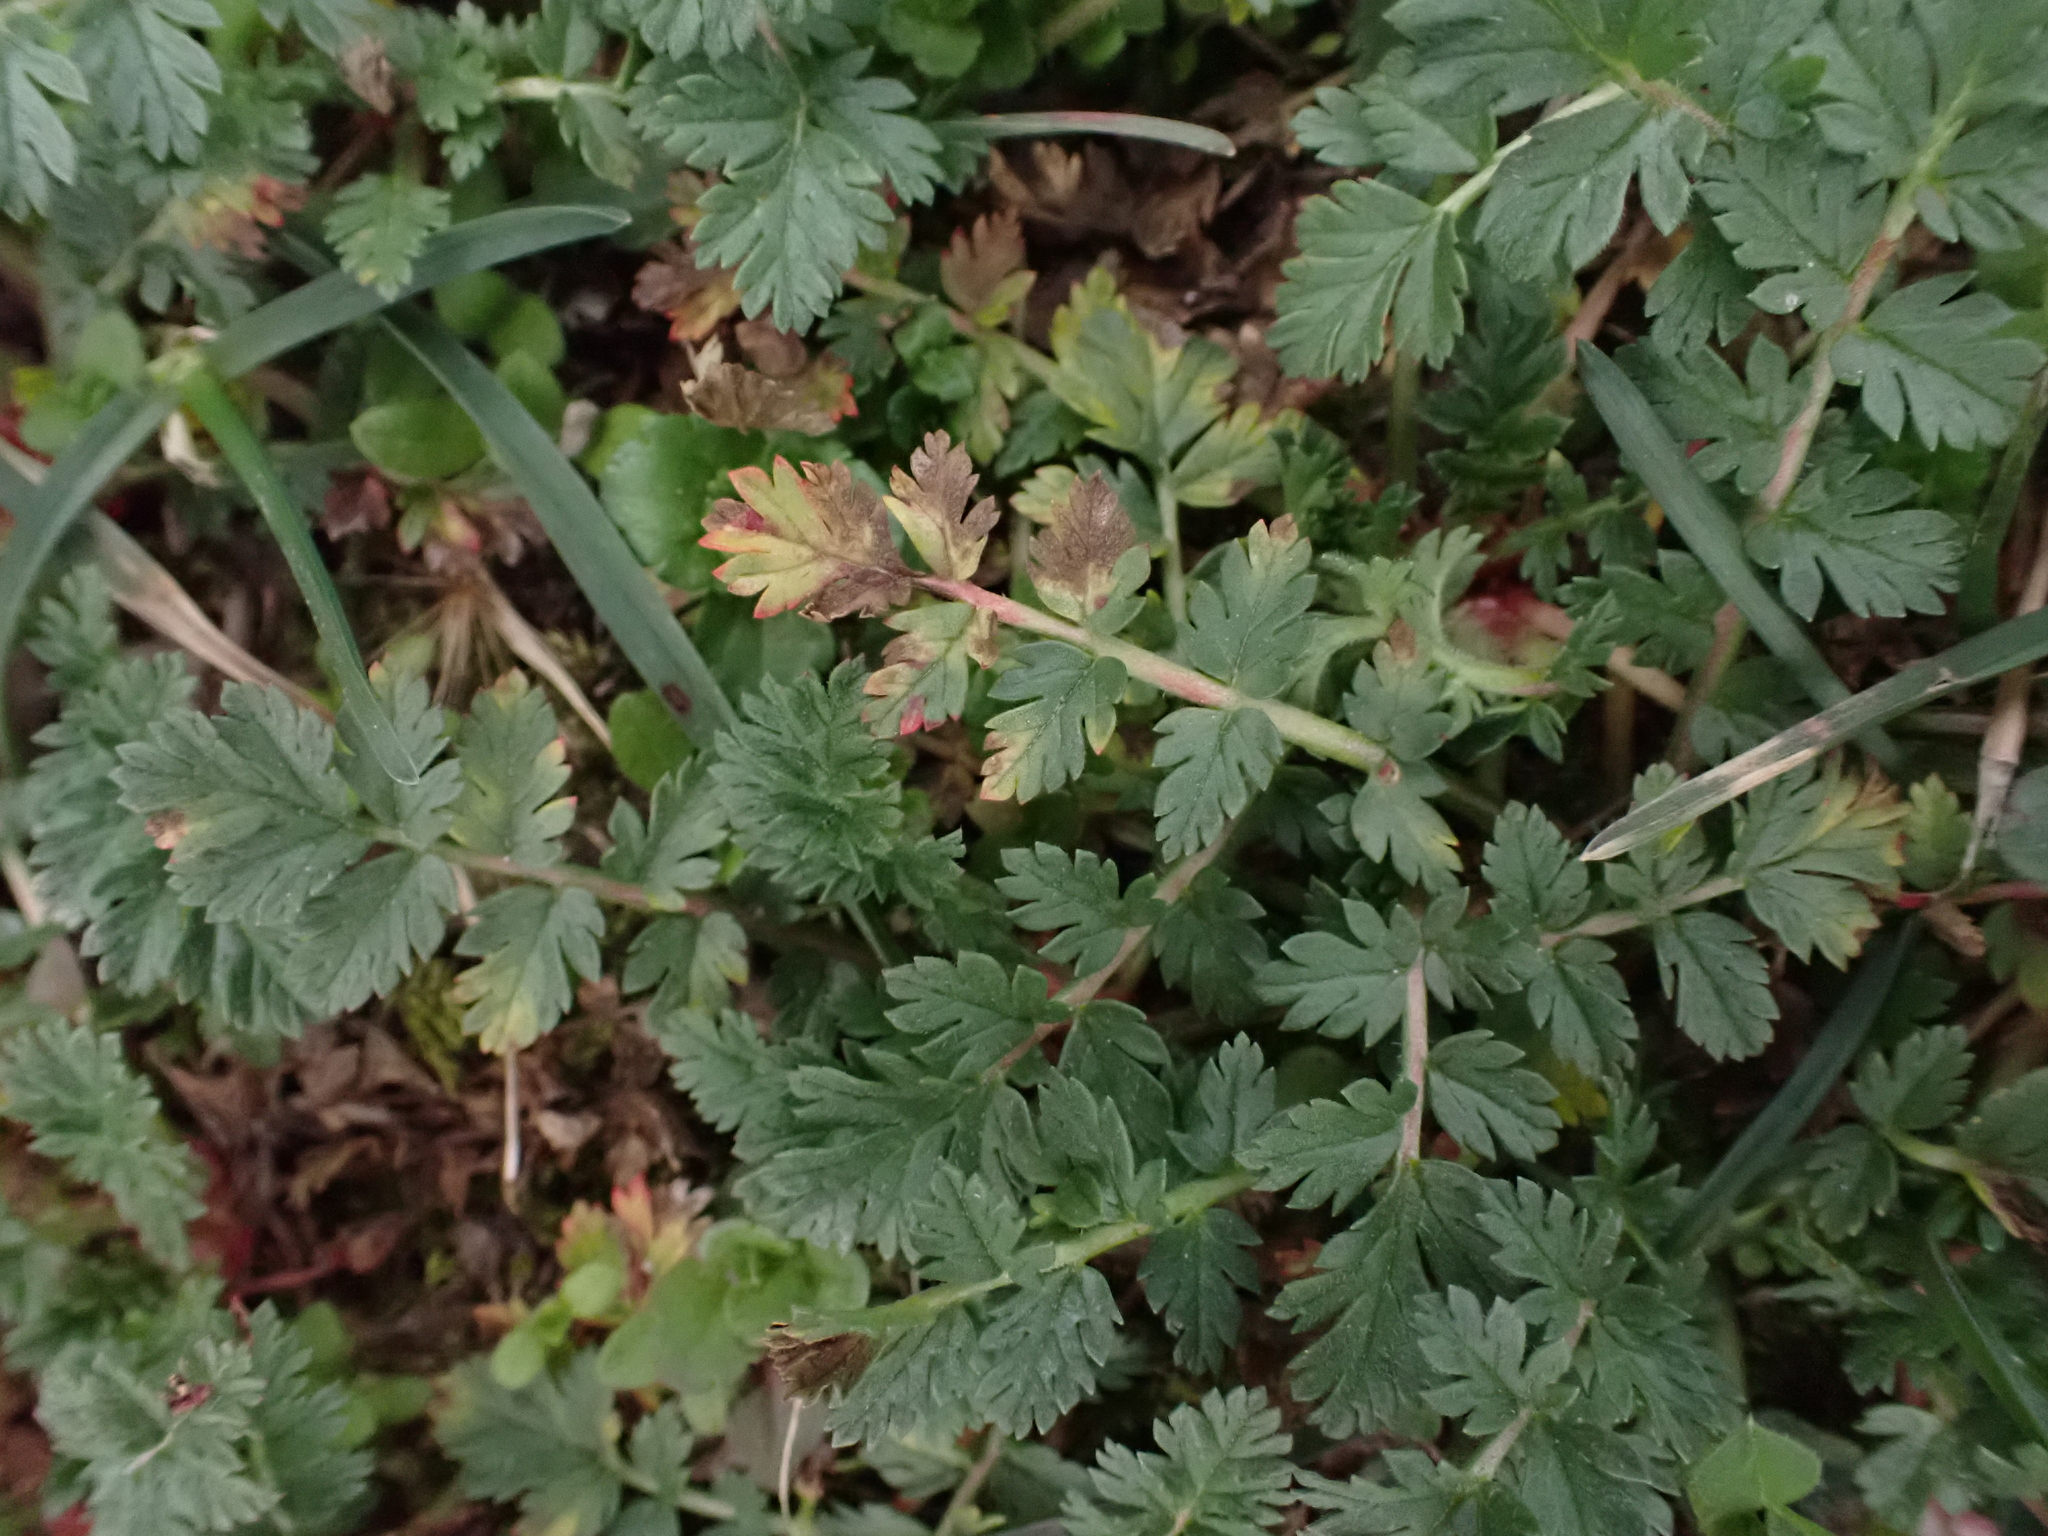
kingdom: Plantae
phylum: Tracheophyta
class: Magnoliopsida
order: Geraniales
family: Geraniaceae
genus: Erodium
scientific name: Erodium cicutarium
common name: Common stork's-bill
